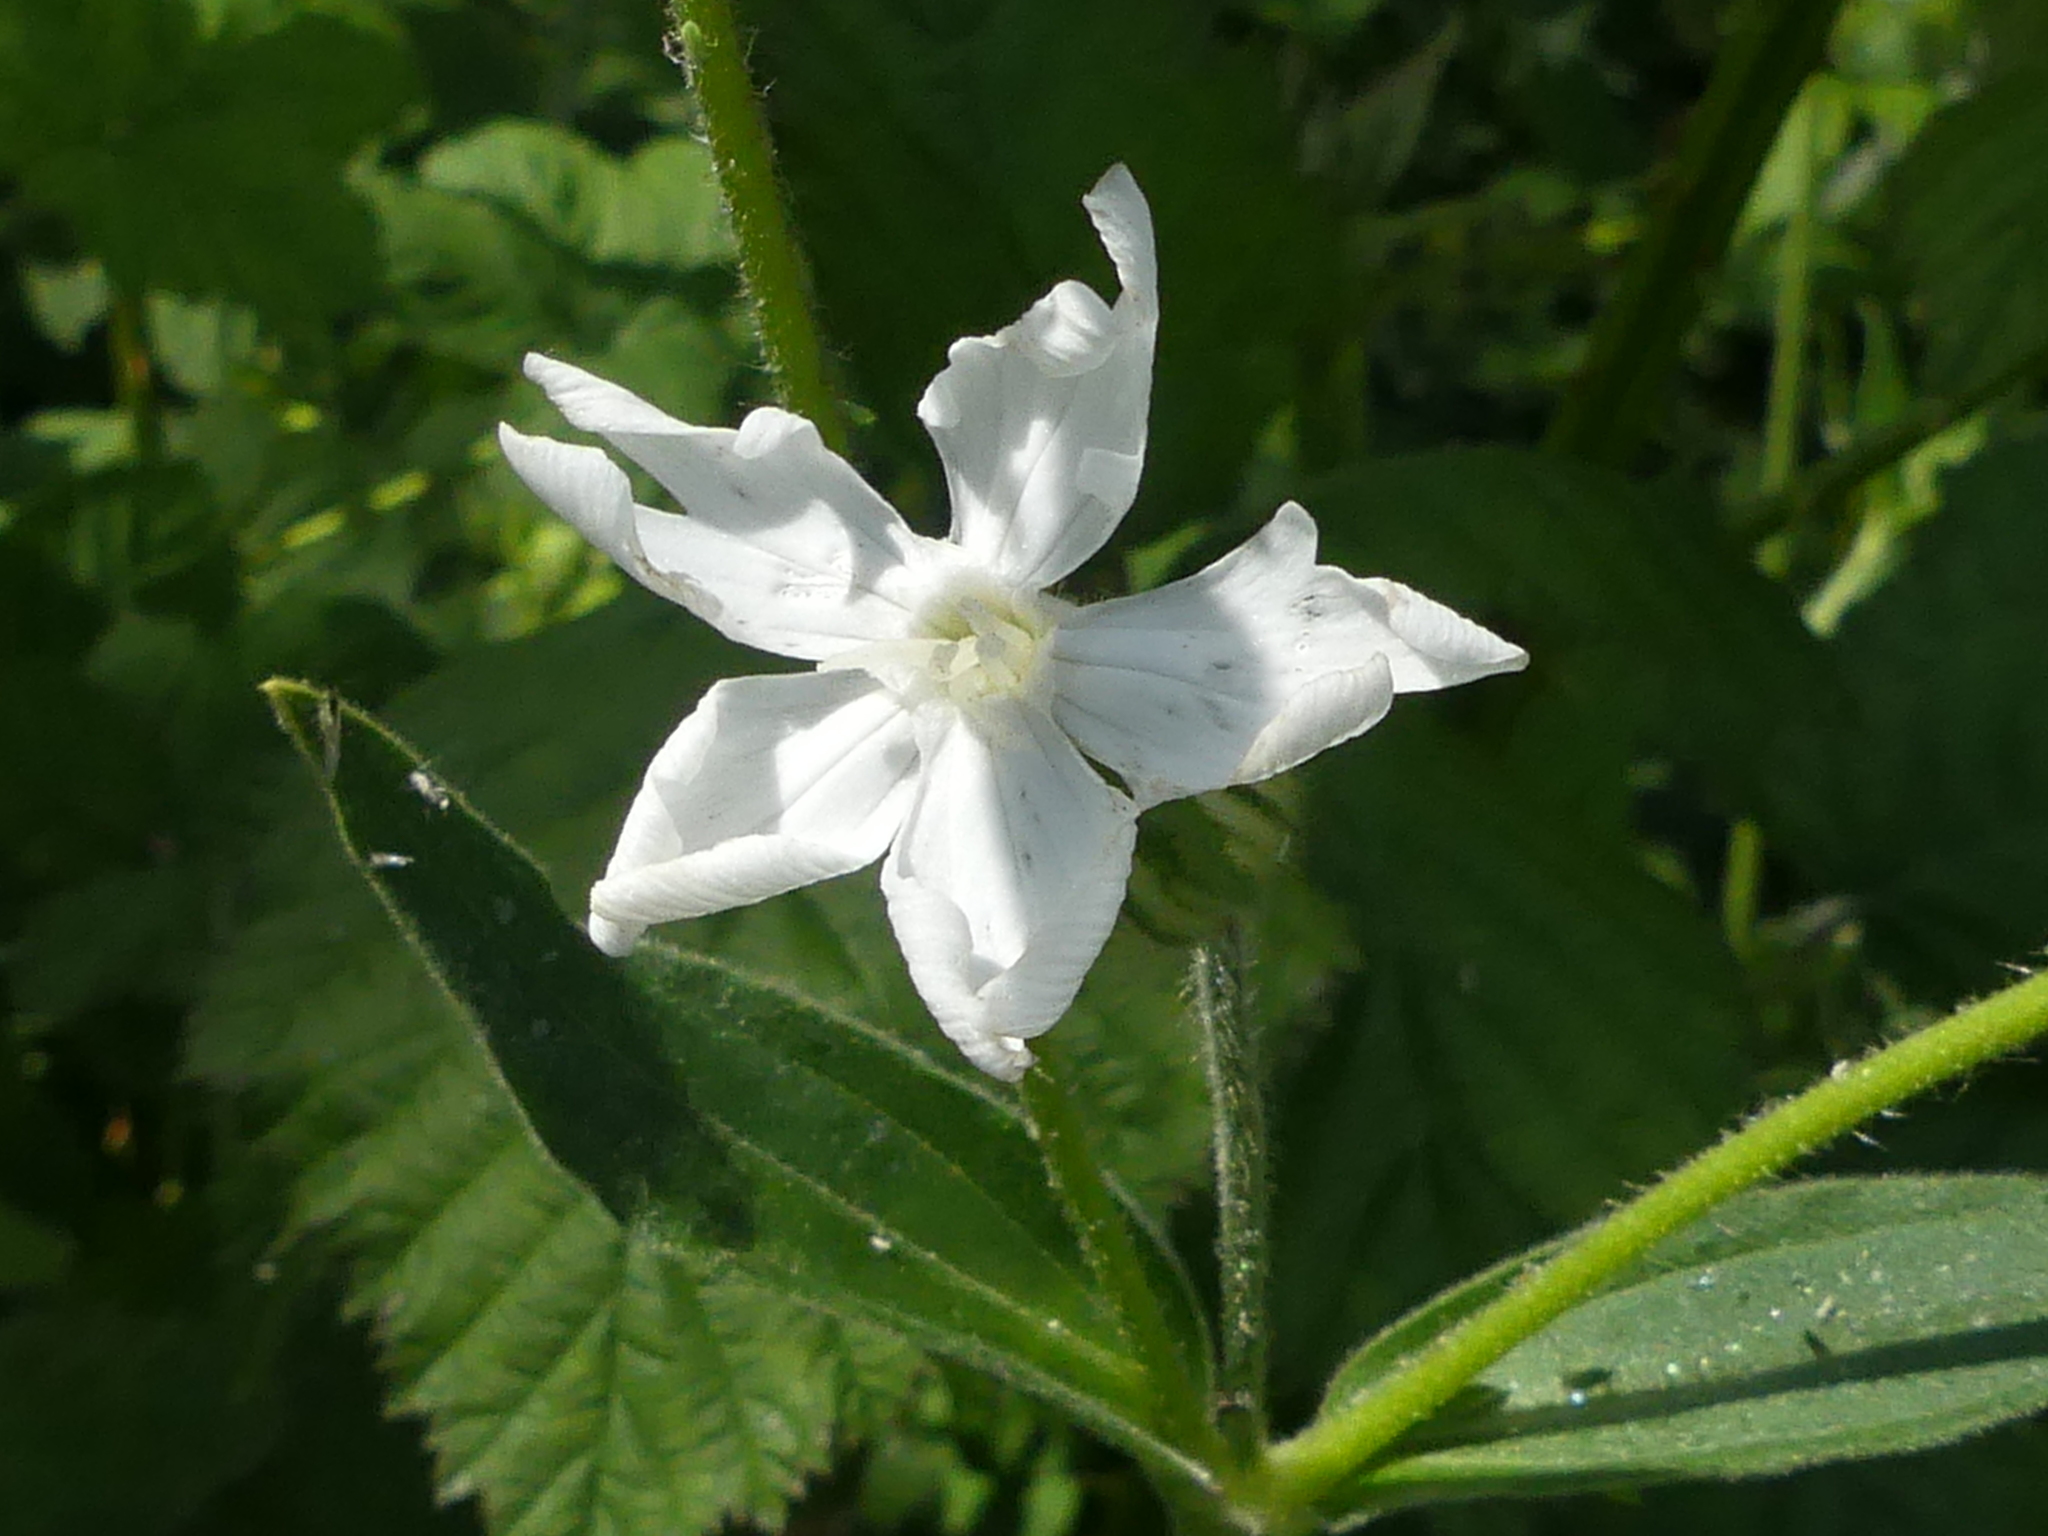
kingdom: Plantae
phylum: Tracheophyta
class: Magnoliopsida
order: Caryophyllales
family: Caryophyllaceae
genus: Silene
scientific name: Silene latifolia
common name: White campion
